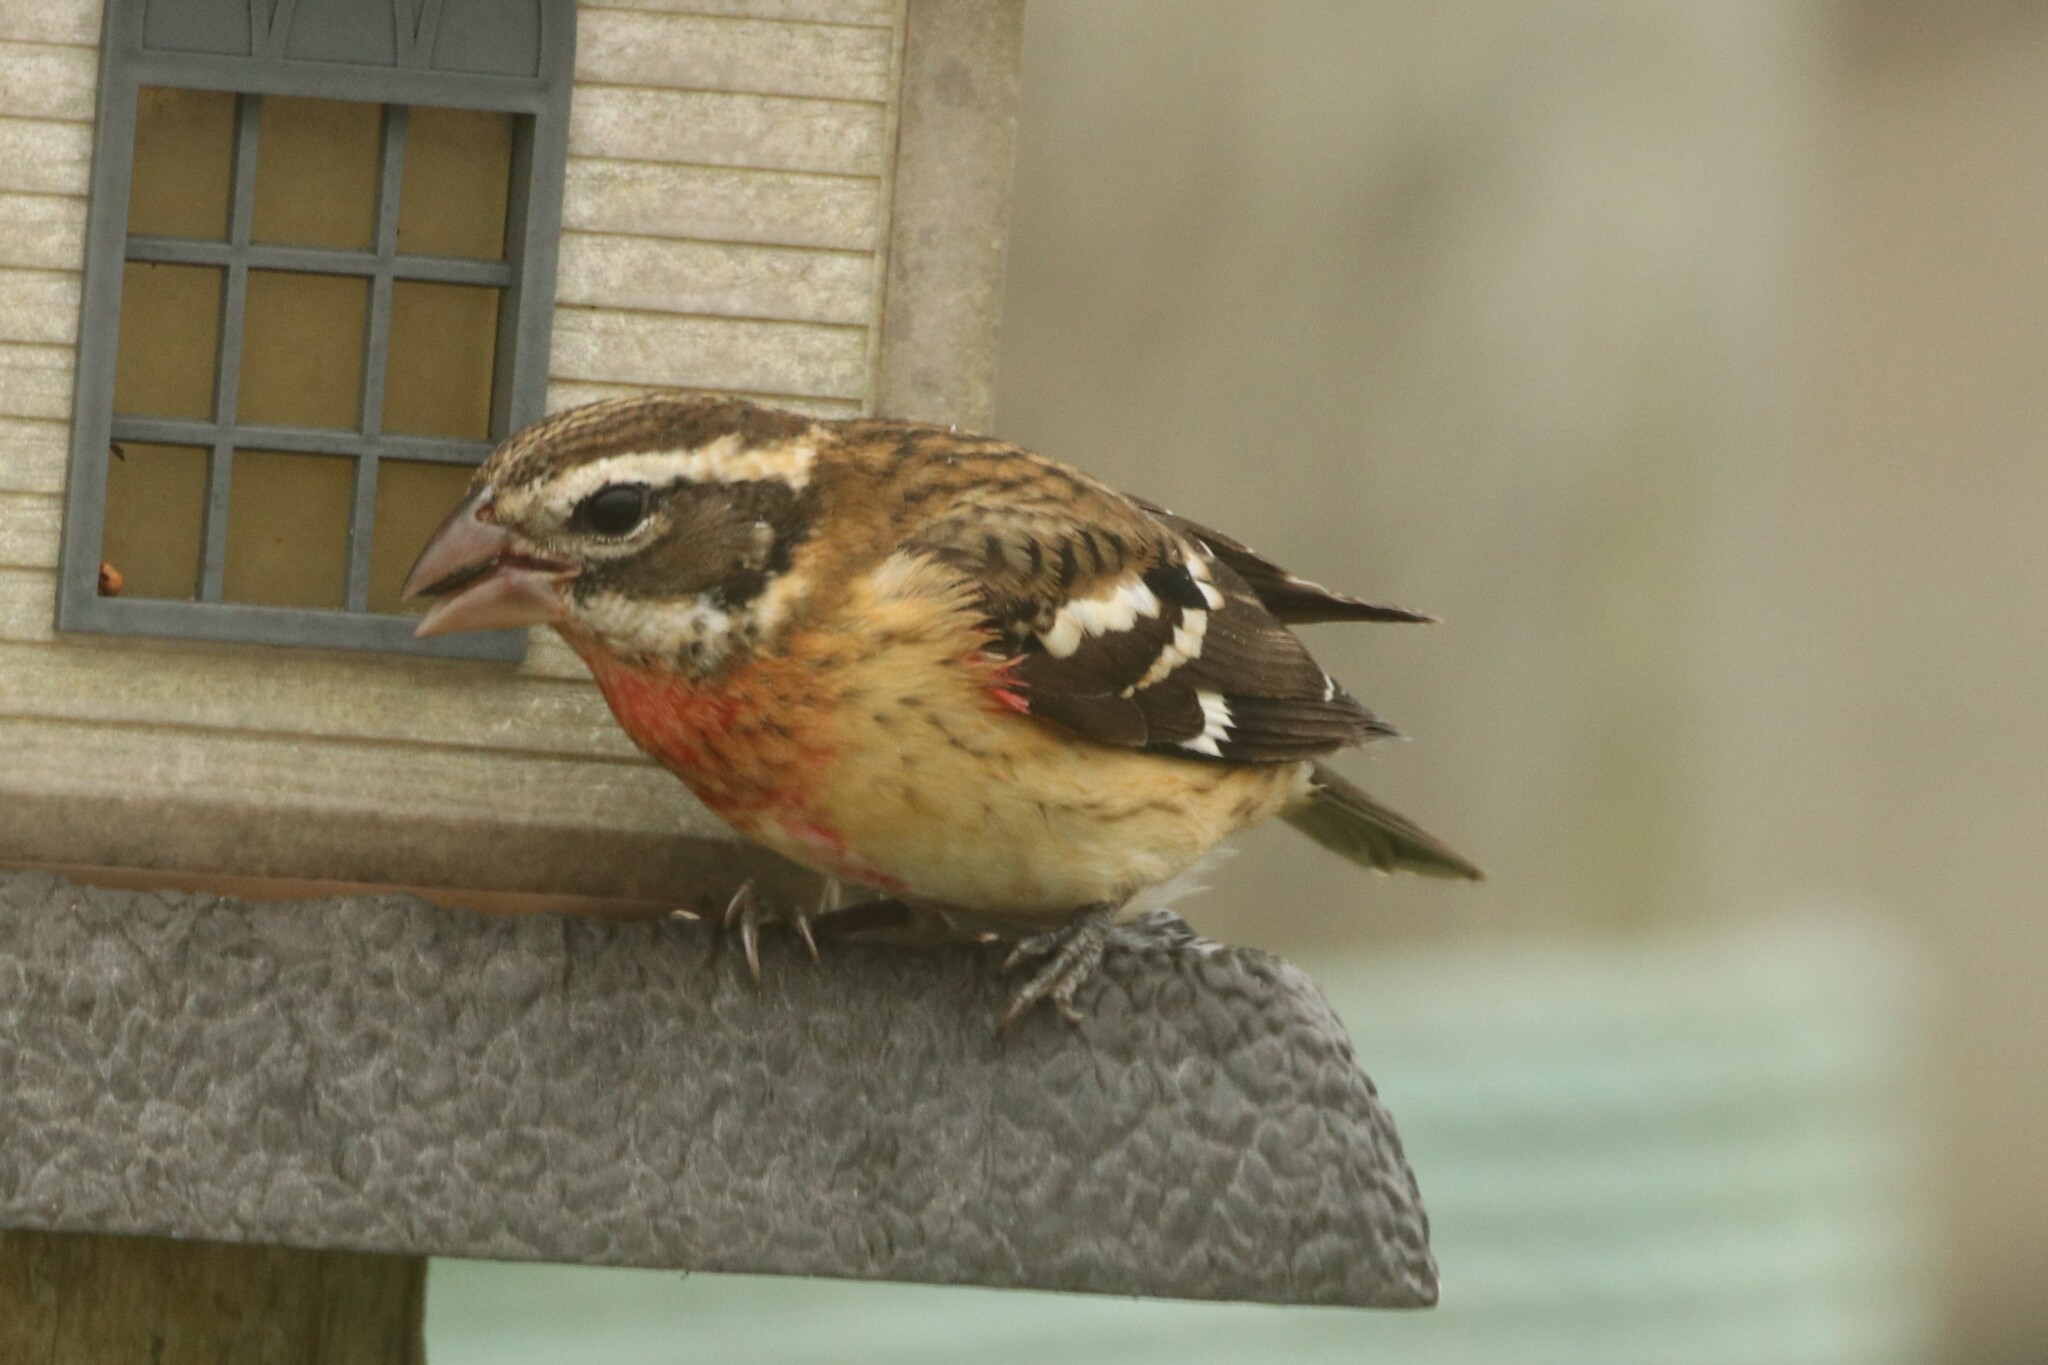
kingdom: Animalia
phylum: Chordata
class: Aves
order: Passeriformes
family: Cardinalidae
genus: Pheucticus
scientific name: Pheucticus ludovicianus
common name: Rose-breasted grosbeak
